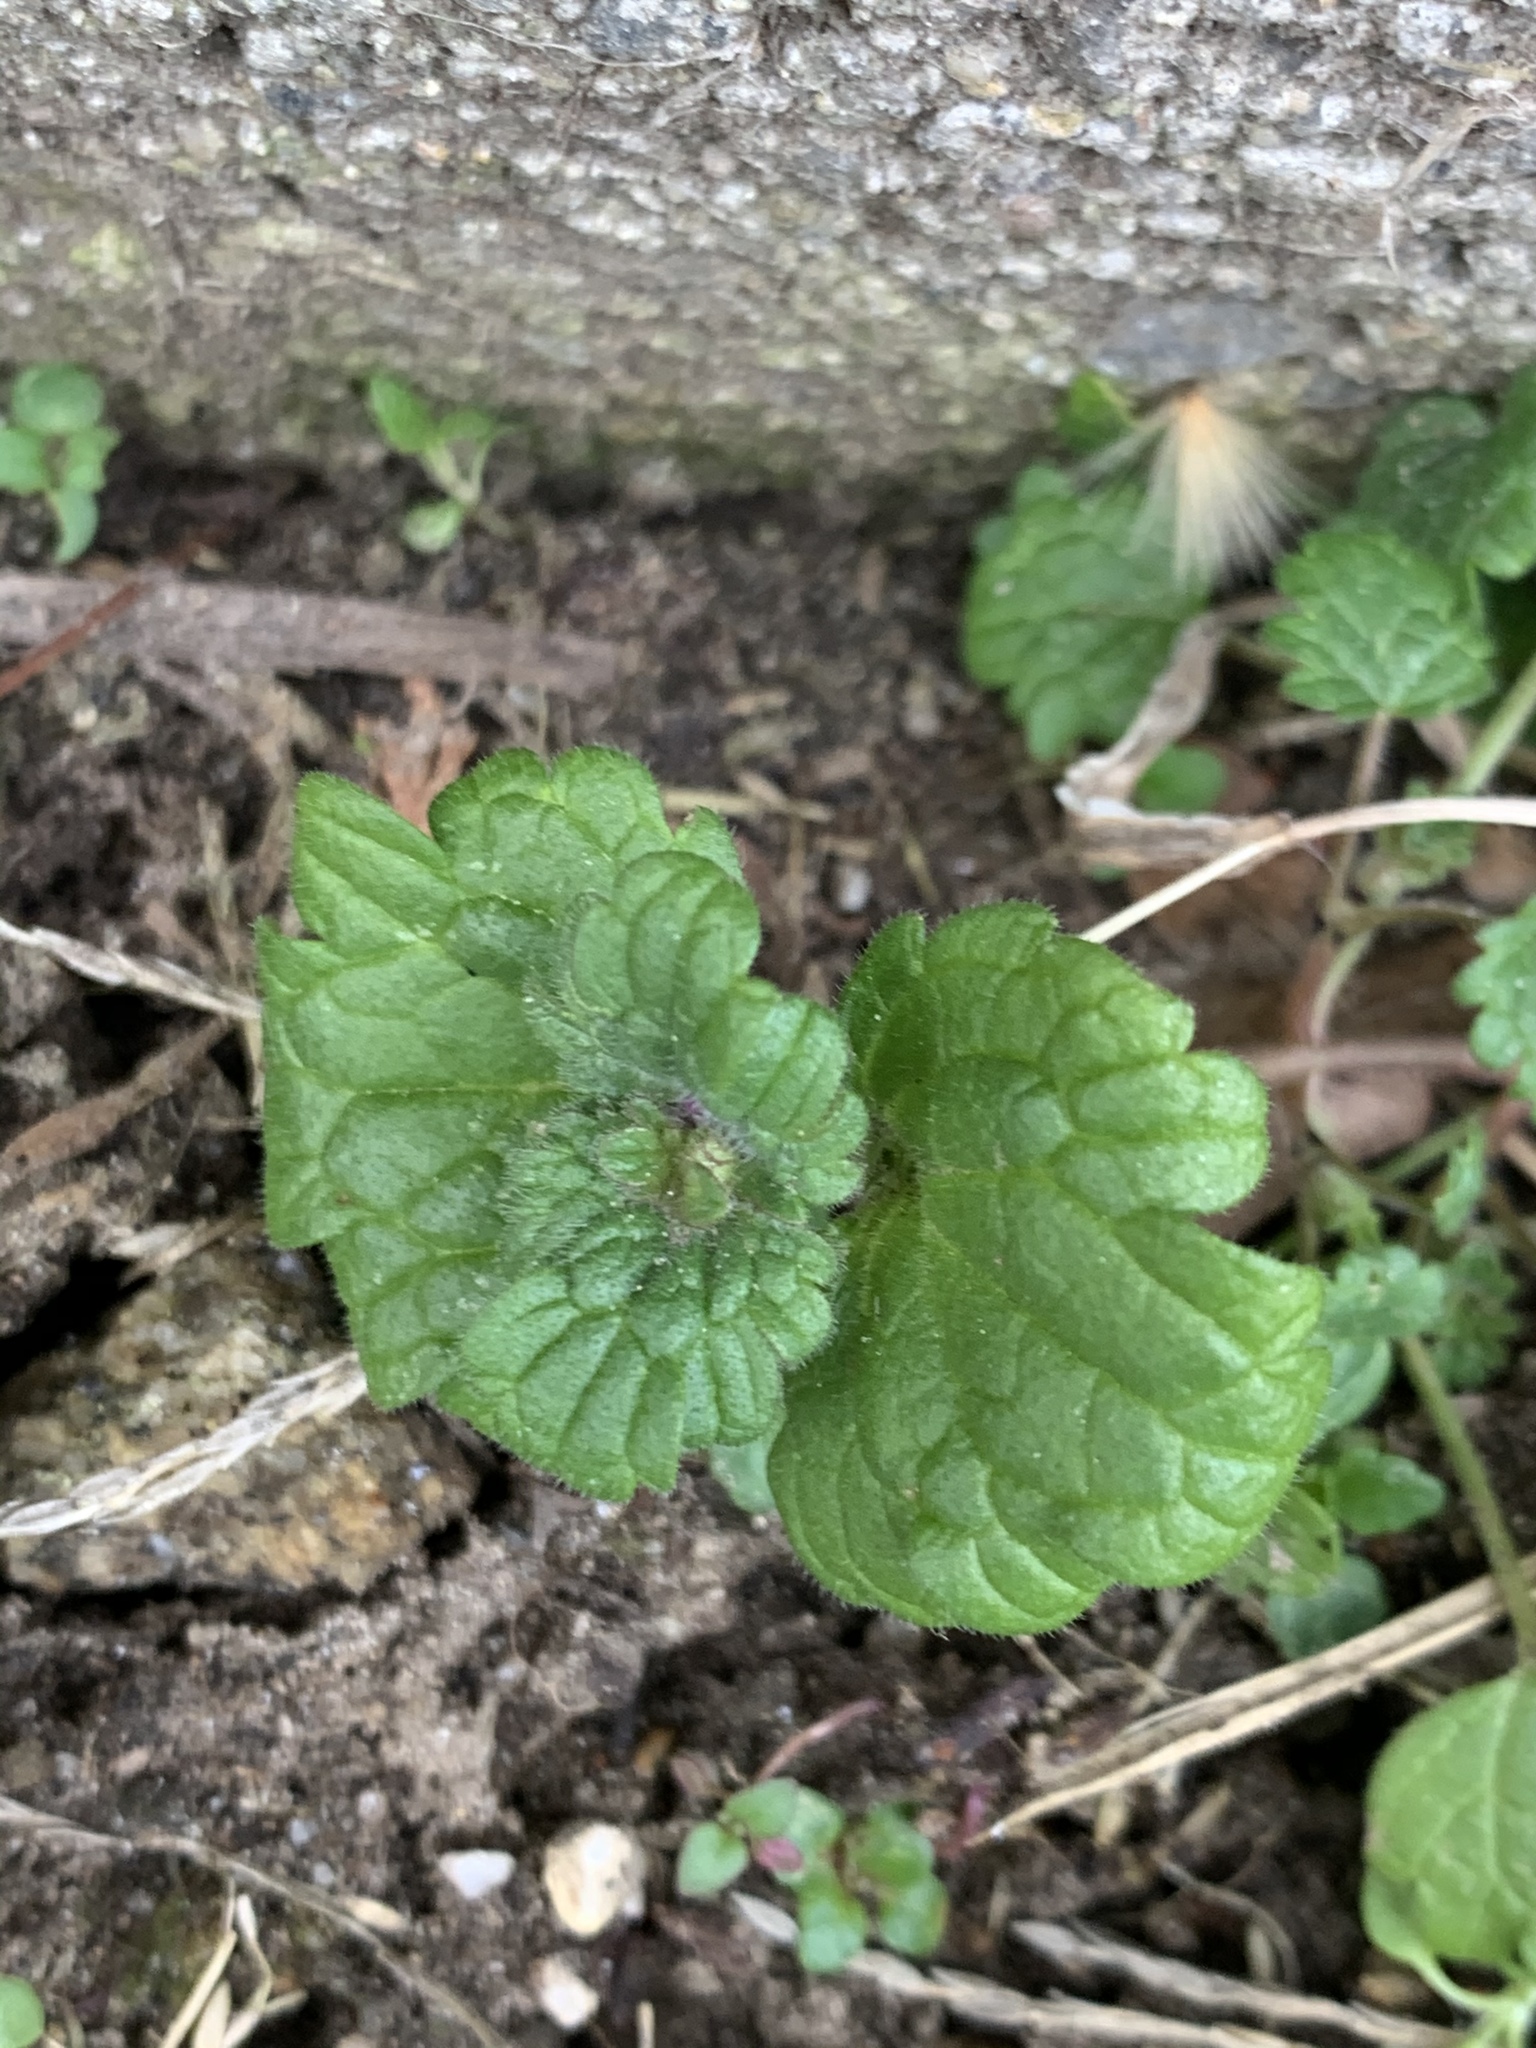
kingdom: Plantae
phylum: Tracheophyta
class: Magnoliopsida
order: Lamiales
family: Lamiaceae
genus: Lamium
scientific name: Lamium amplexicaule
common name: Henbit dead-nettle
